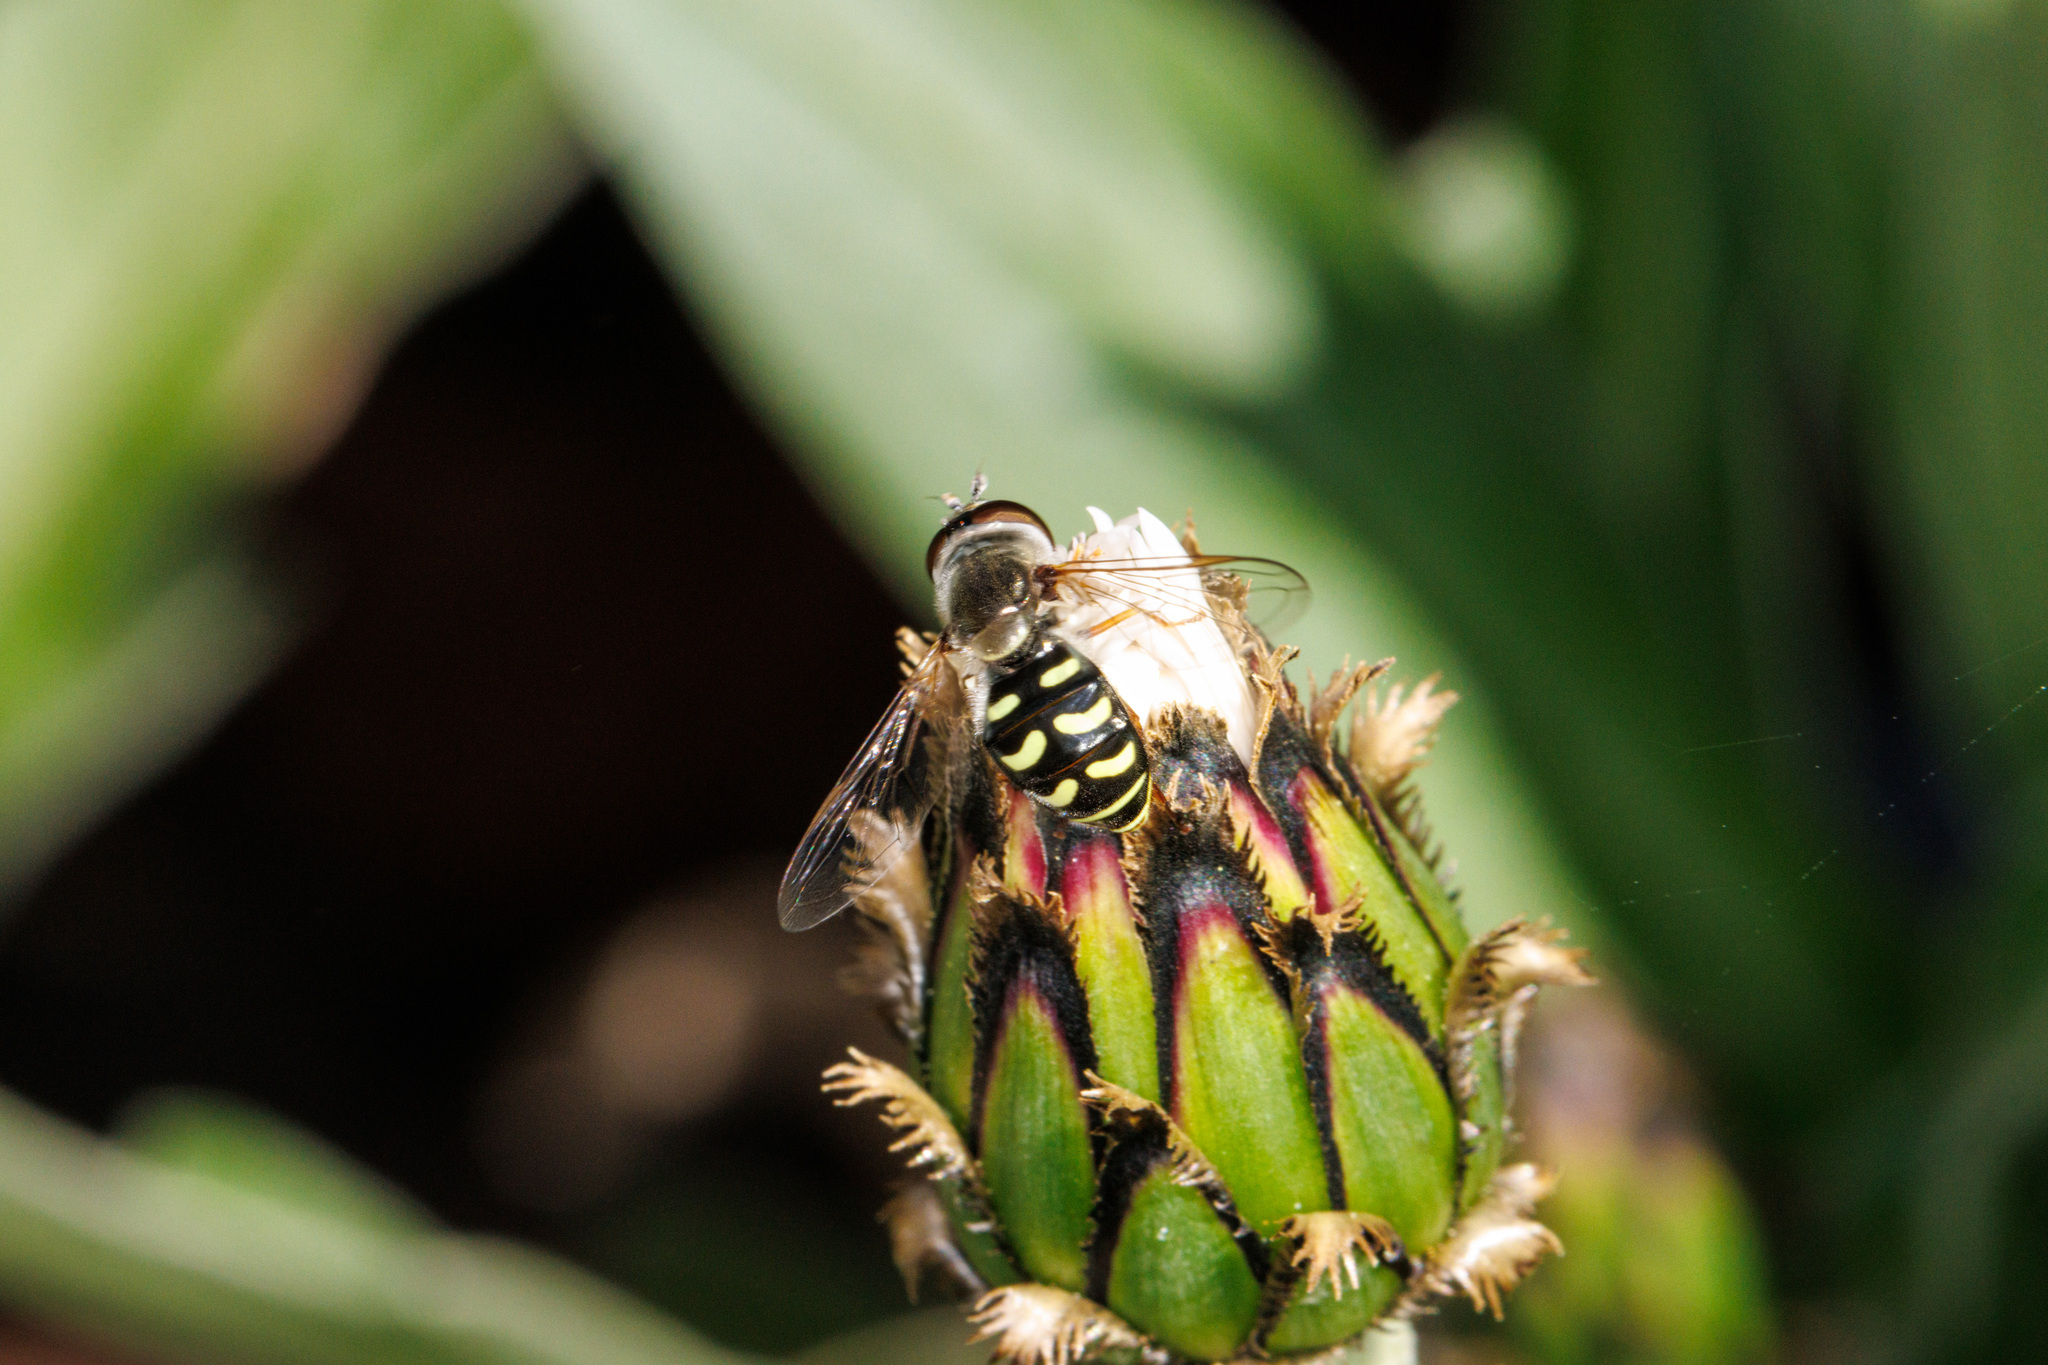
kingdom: Animalia
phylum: Arthropoda
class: Insecta
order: Diptera
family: Syrphidae
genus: Eupeodes
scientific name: Eupeodes volucris
